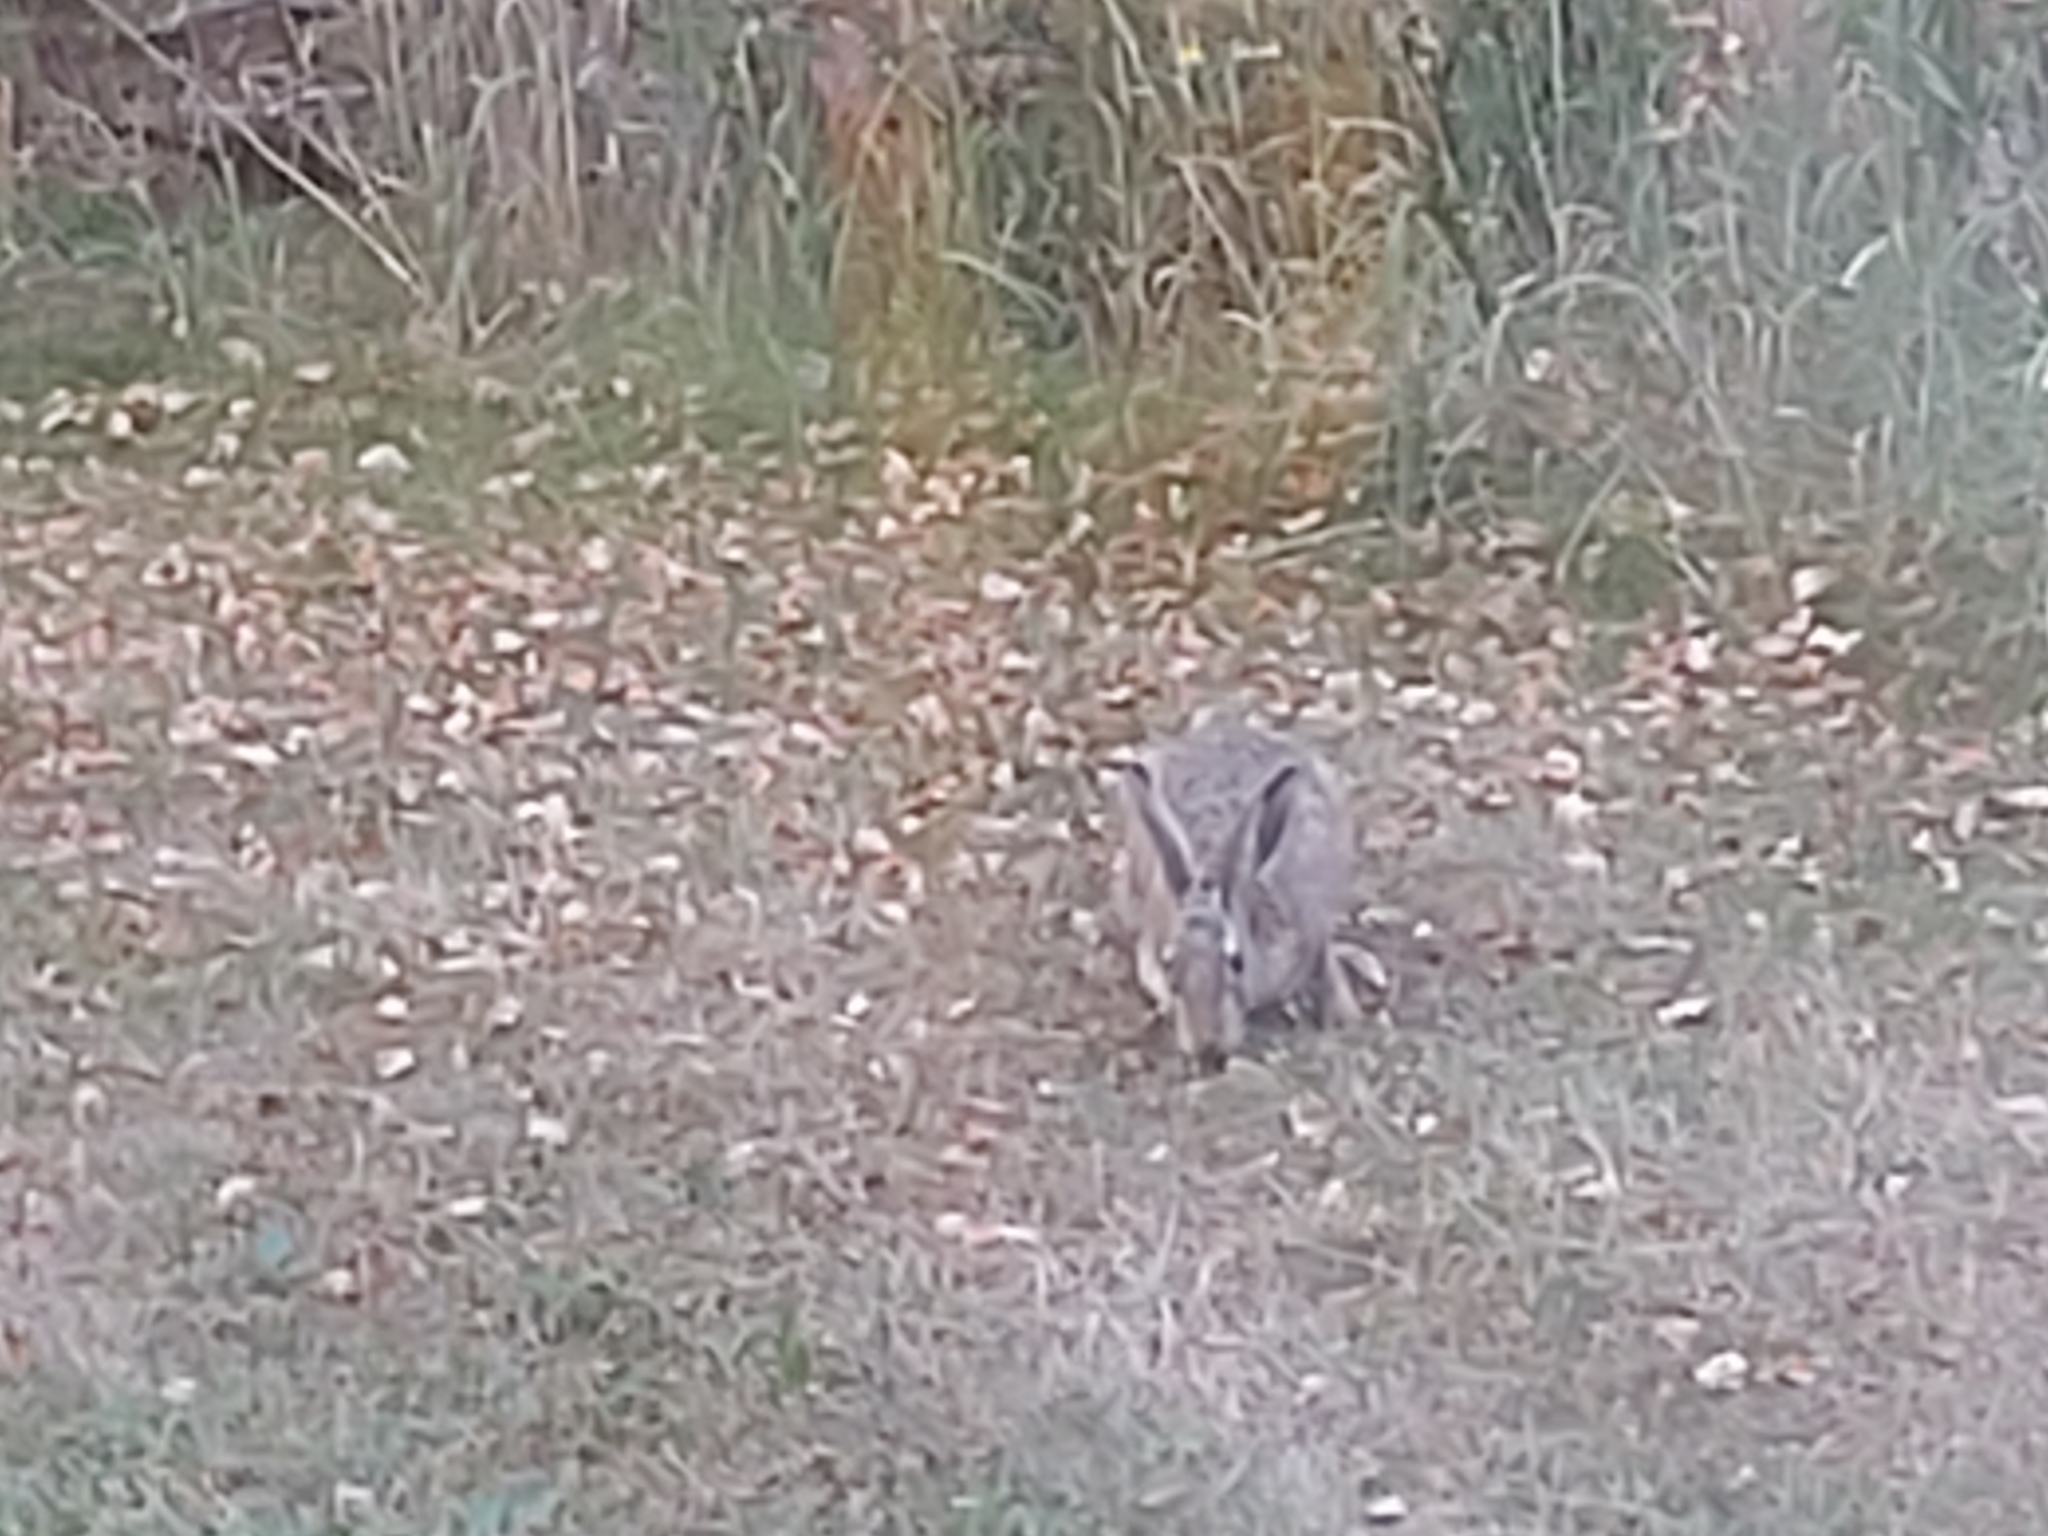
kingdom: Animalia
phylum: Chordata
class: Mammalia
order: Lagomorpha
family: Leporidae
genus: Lepus
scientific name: Lepus europaeus
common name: European hare
